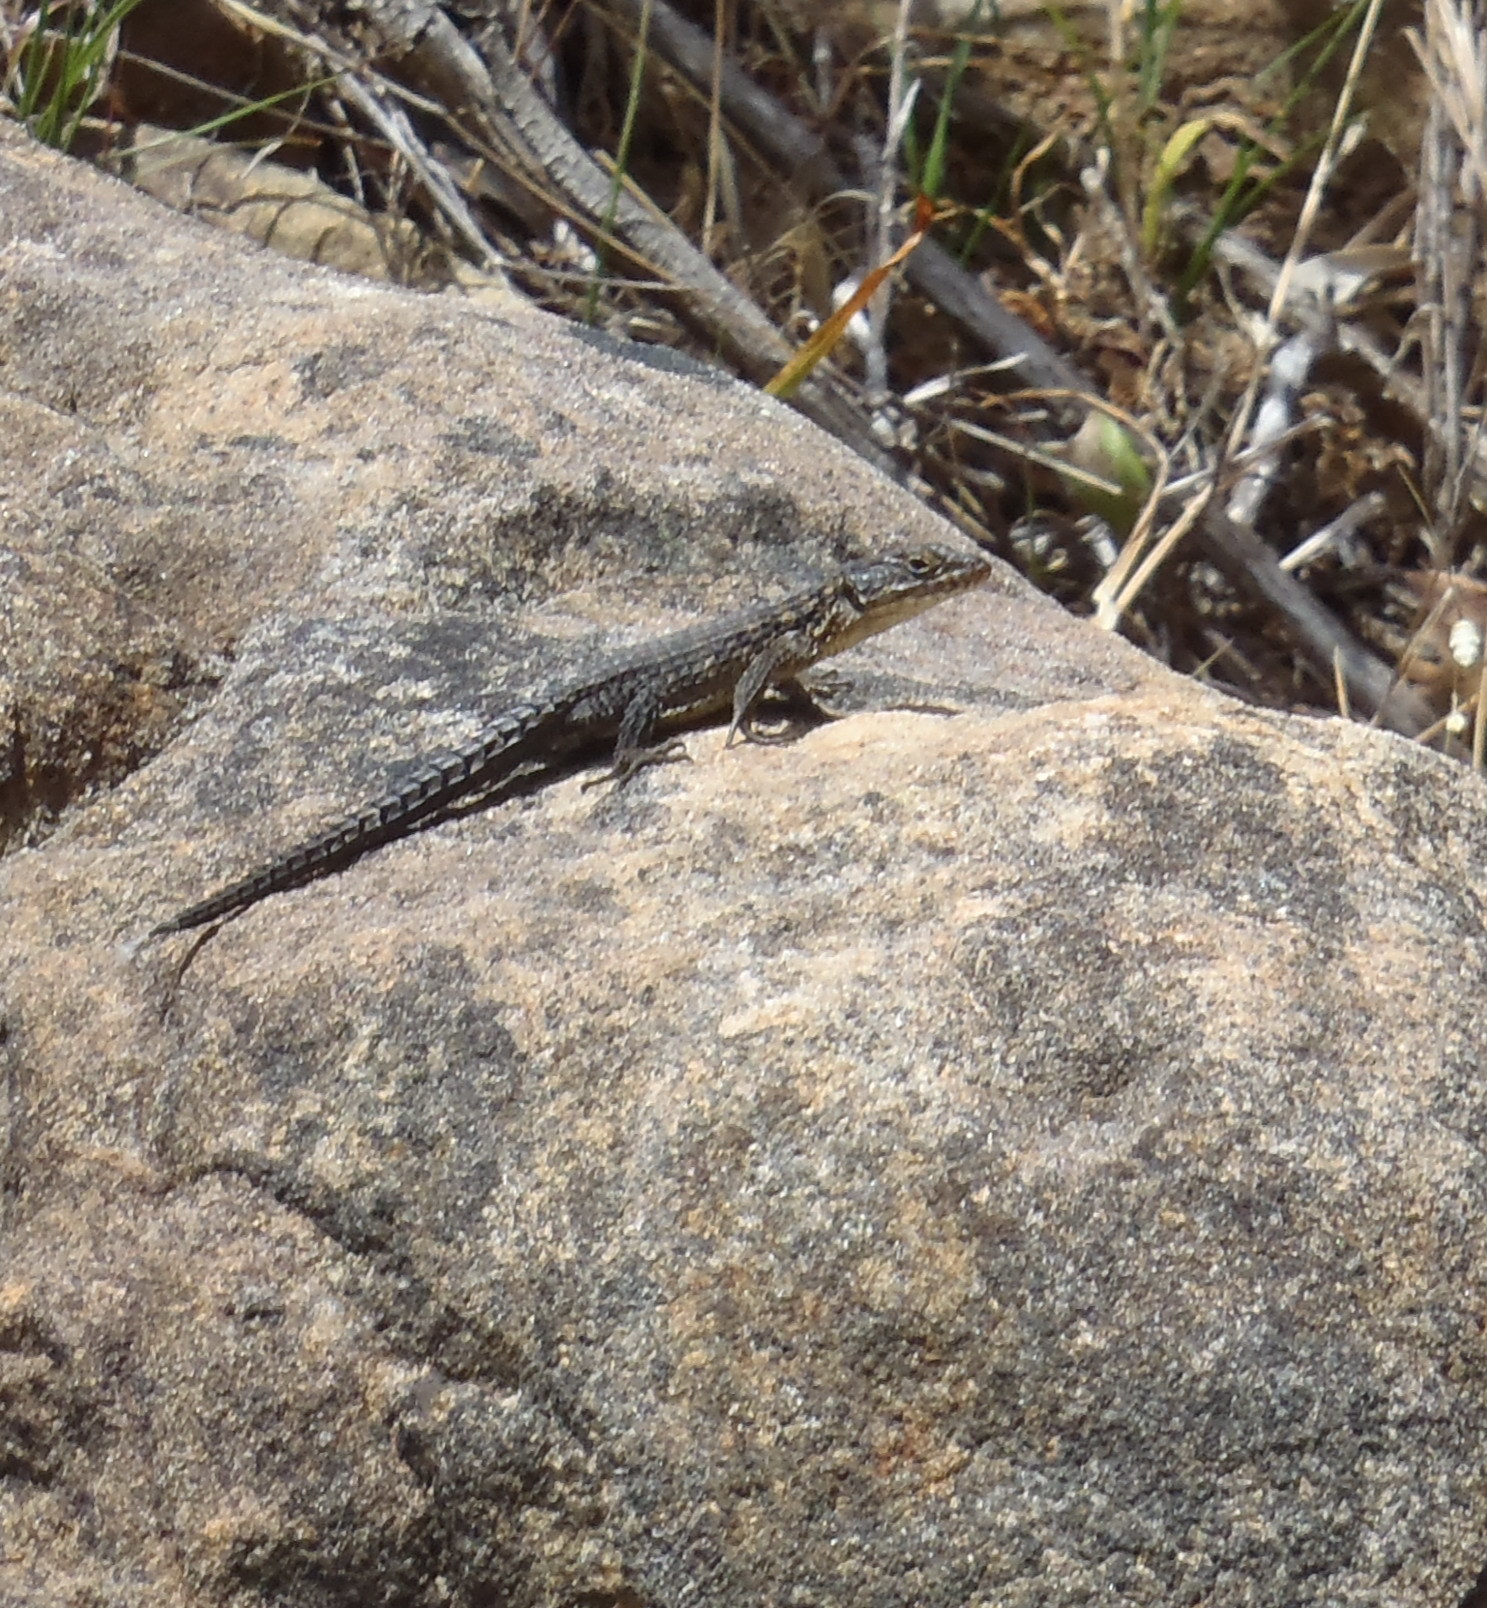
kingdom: Animalia
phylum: Chordata
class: Squamata
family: Cordylidae
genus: Cordylus
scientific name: Cordylus cordylus
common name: Cape girdled lizard
